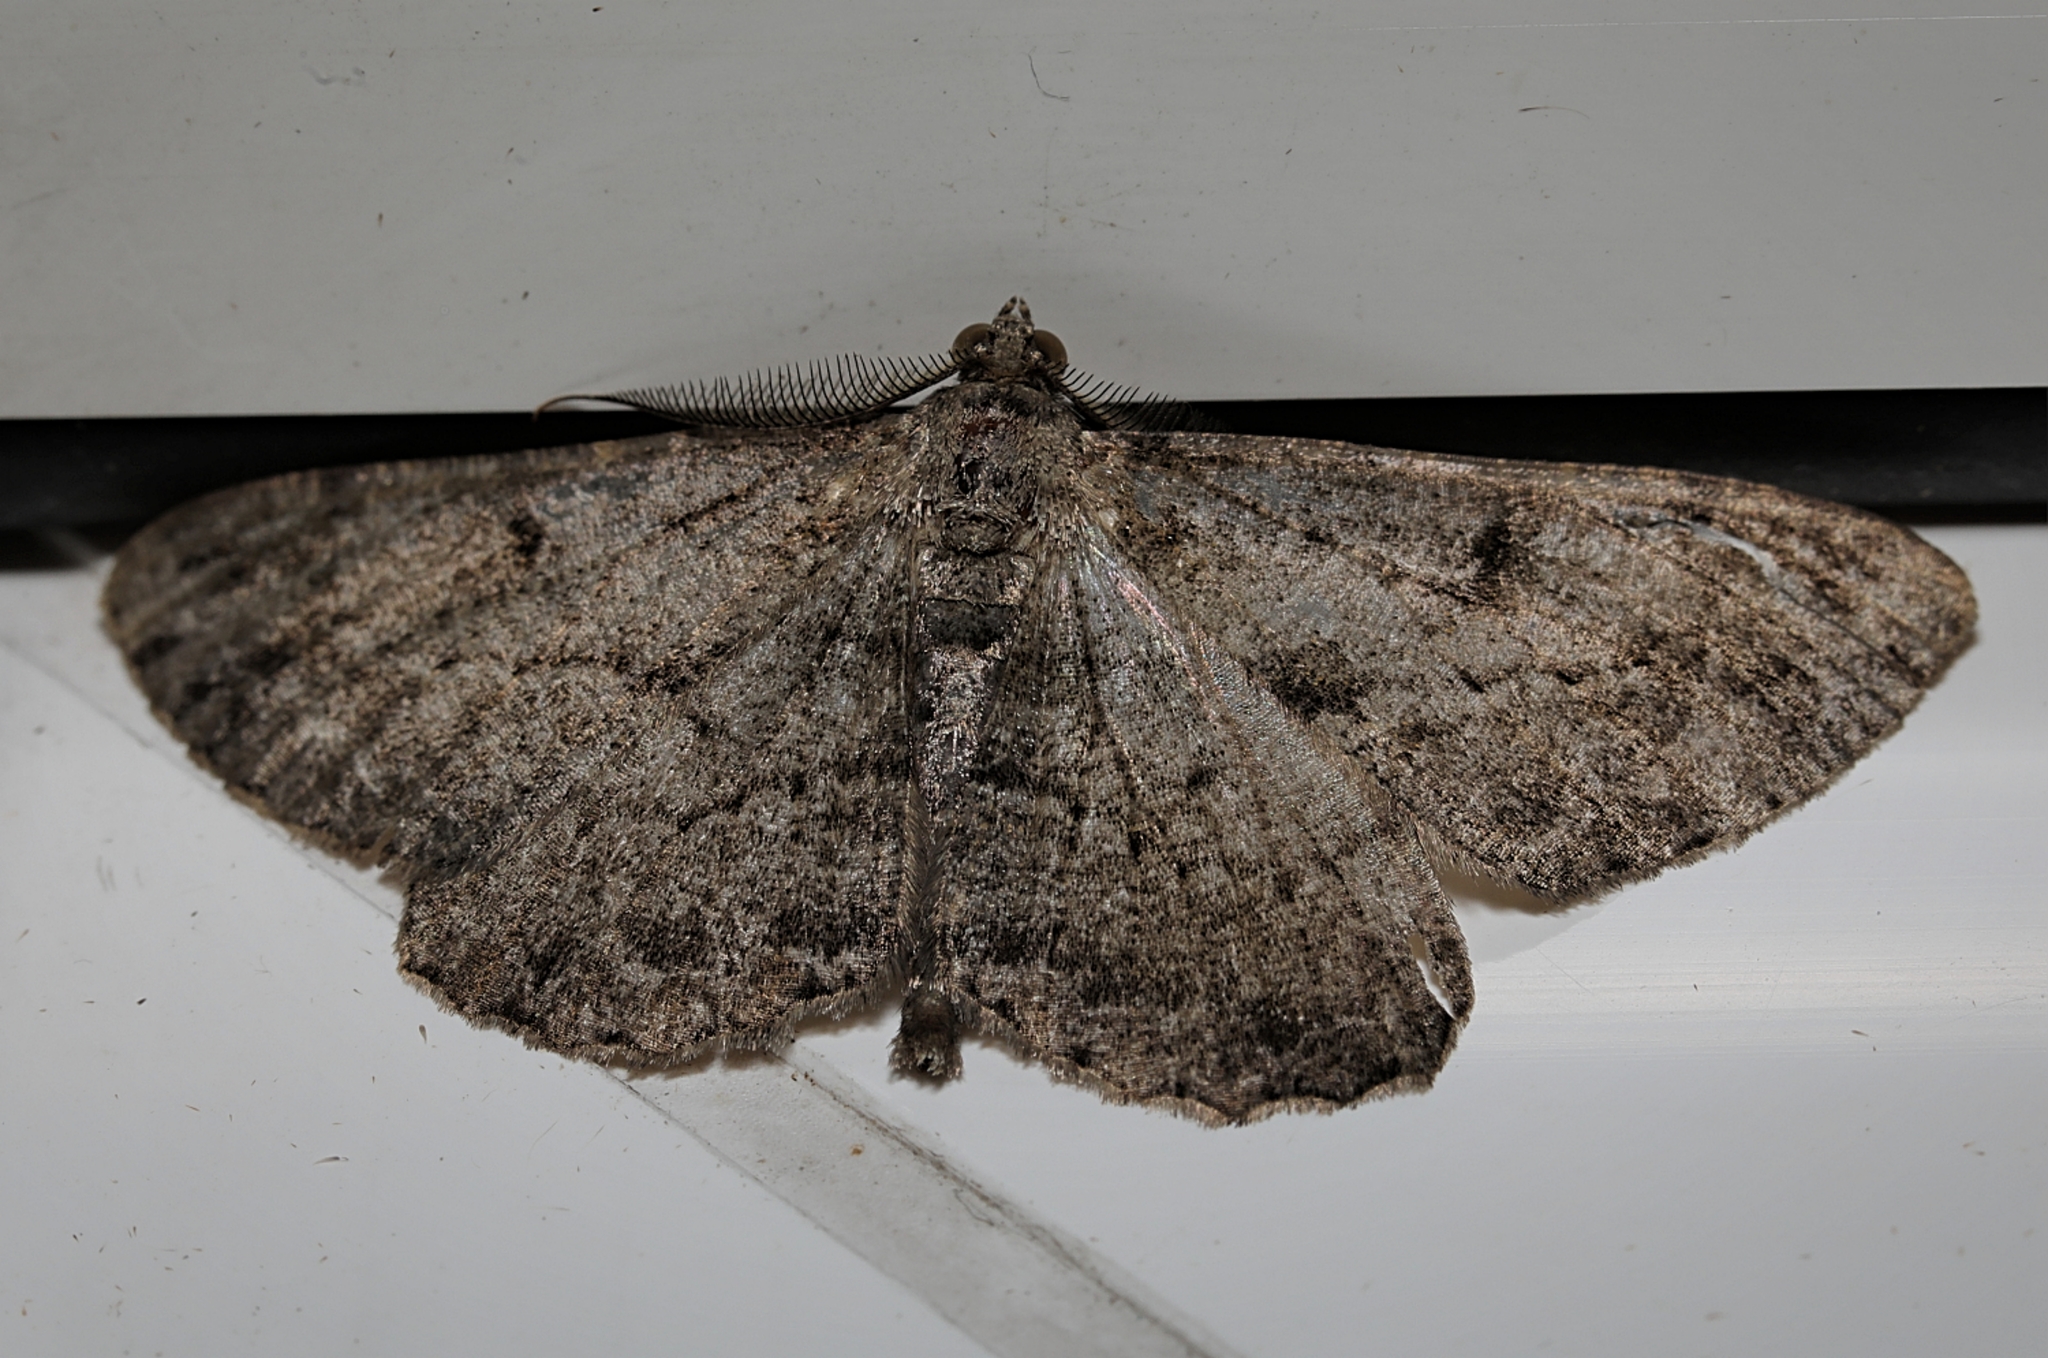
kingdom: Animalia
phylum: Arthropoda
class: Insecta
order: Lepidoptera
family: Geometridae
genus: Peribatodes
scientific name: Peribatodes rhomboidaria
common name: Willow beauty
